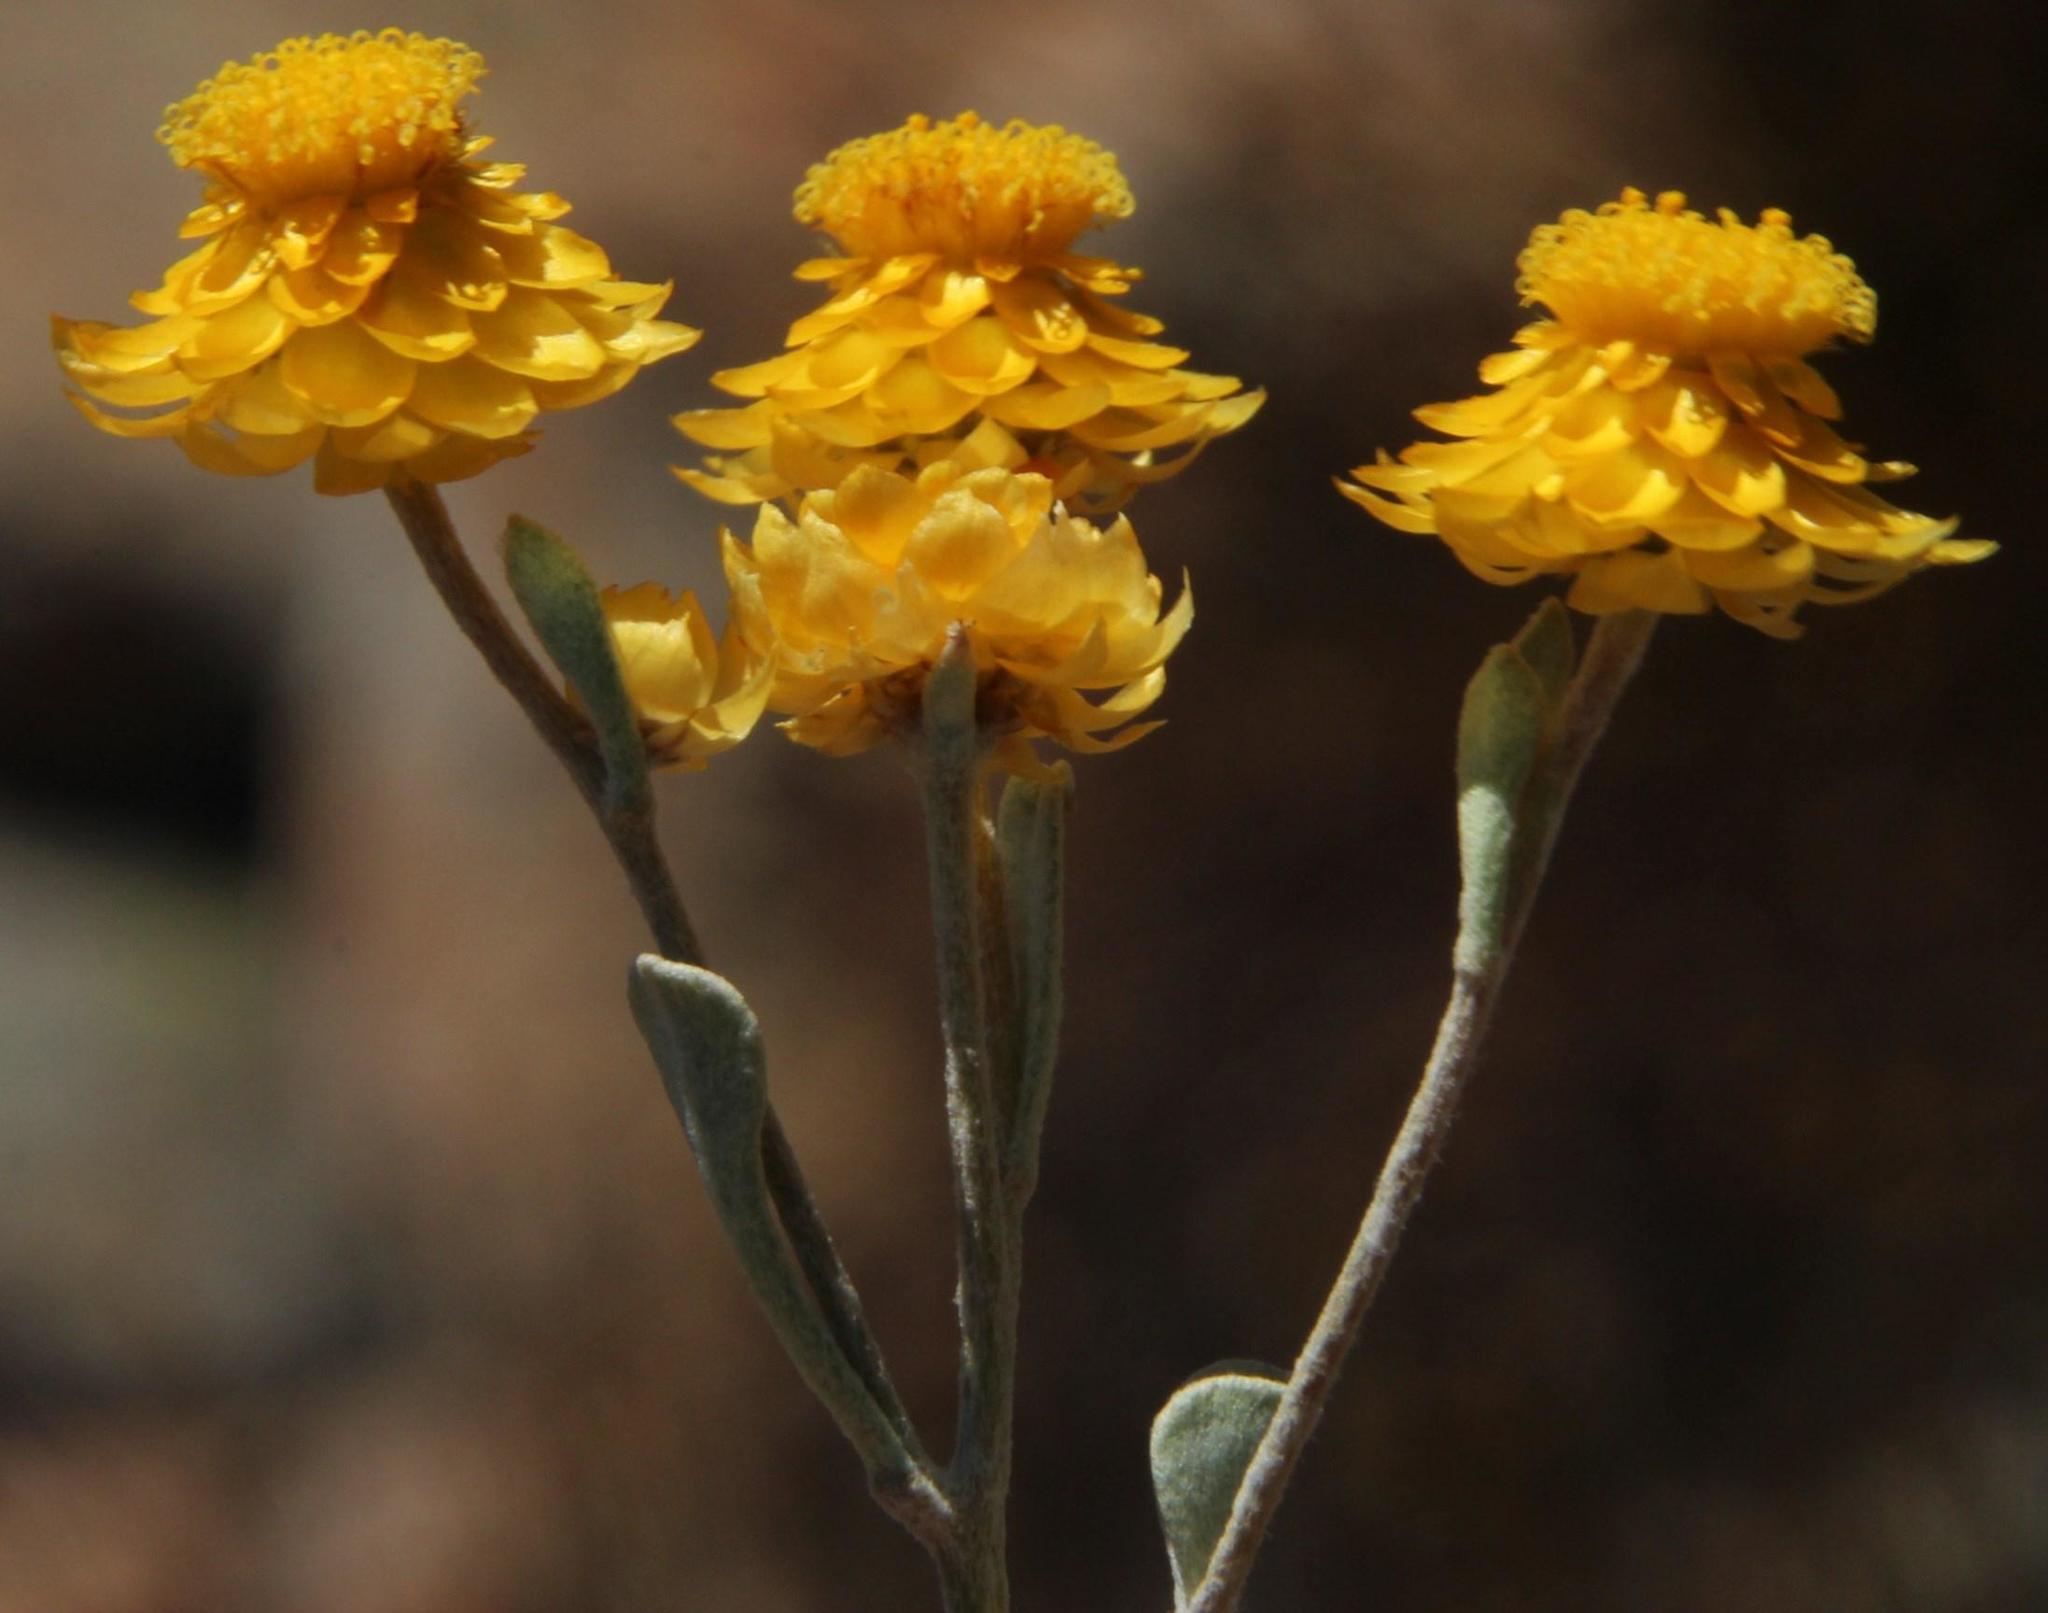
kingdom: Plantae
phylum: Tracheophyta
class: Magnoliopsida
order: Asterales
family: Asteraceae
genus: Helichrysum
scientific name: Helichrysum acrophilum
